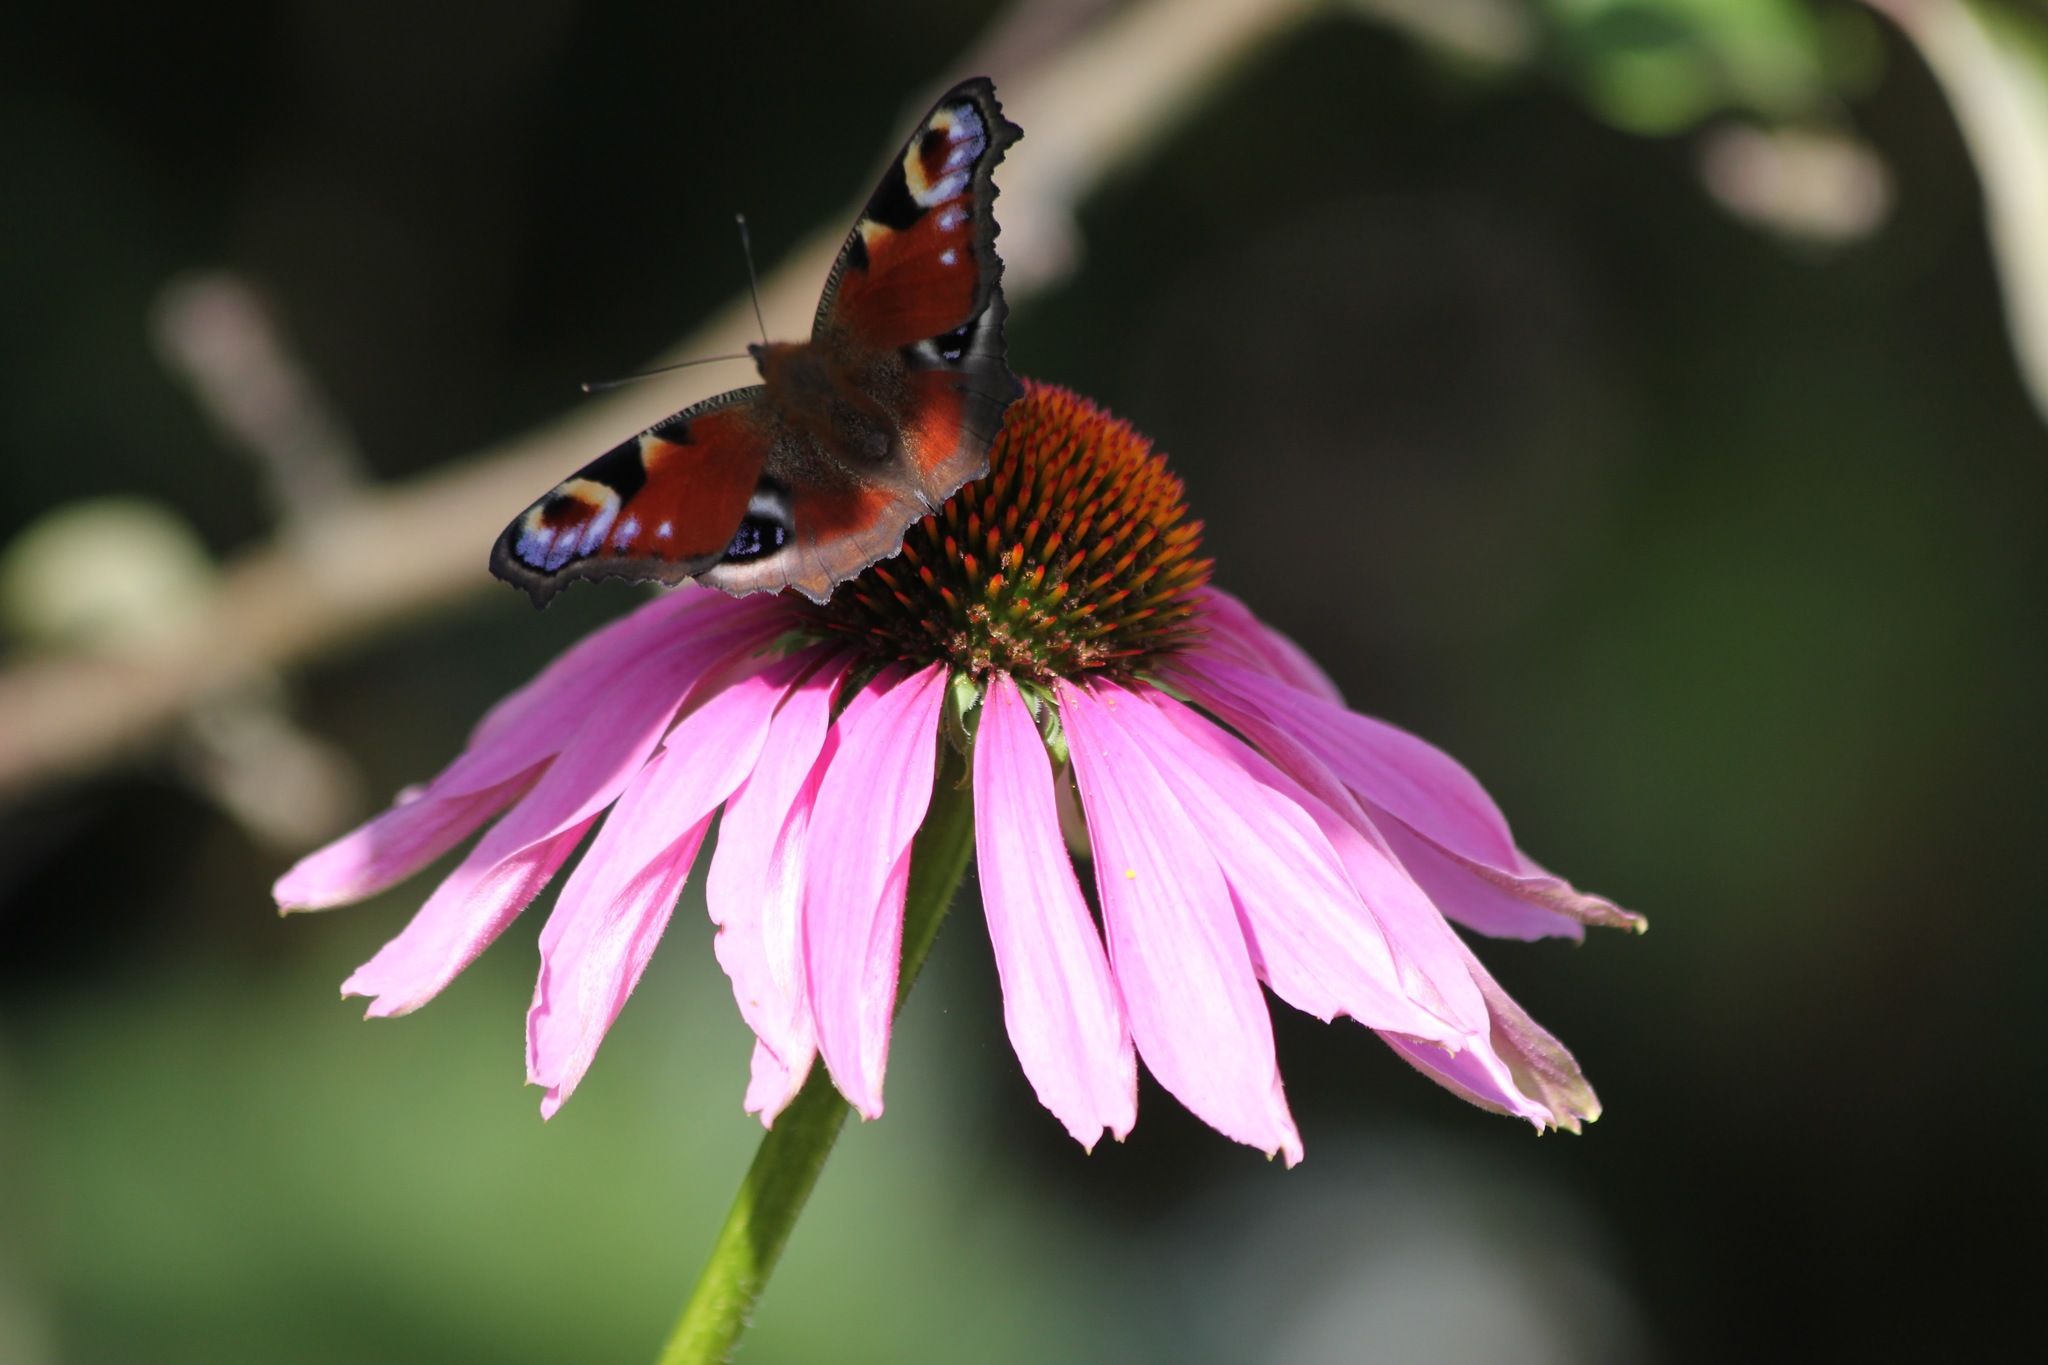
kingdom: Animalia
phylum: Arthropoda
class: Insecta
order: Lepidoptera
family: Nymphalidae
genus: Aglais
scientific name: Aglais io
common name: Peacock
